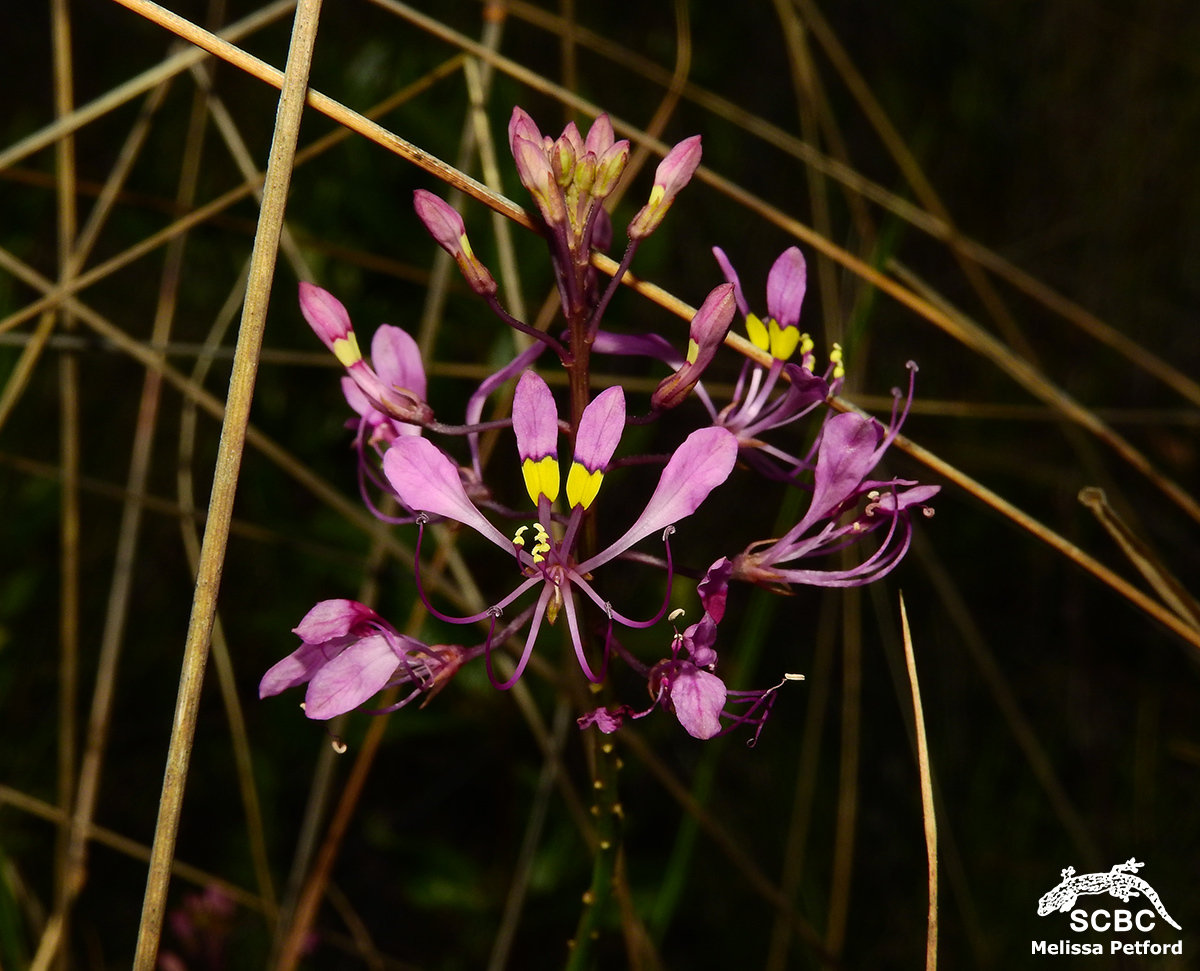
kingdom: Plantae
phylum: Tracheophyta
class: Magnoliopsida
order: Brassicales
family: Cleomaceae
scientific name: Cleomaceae
